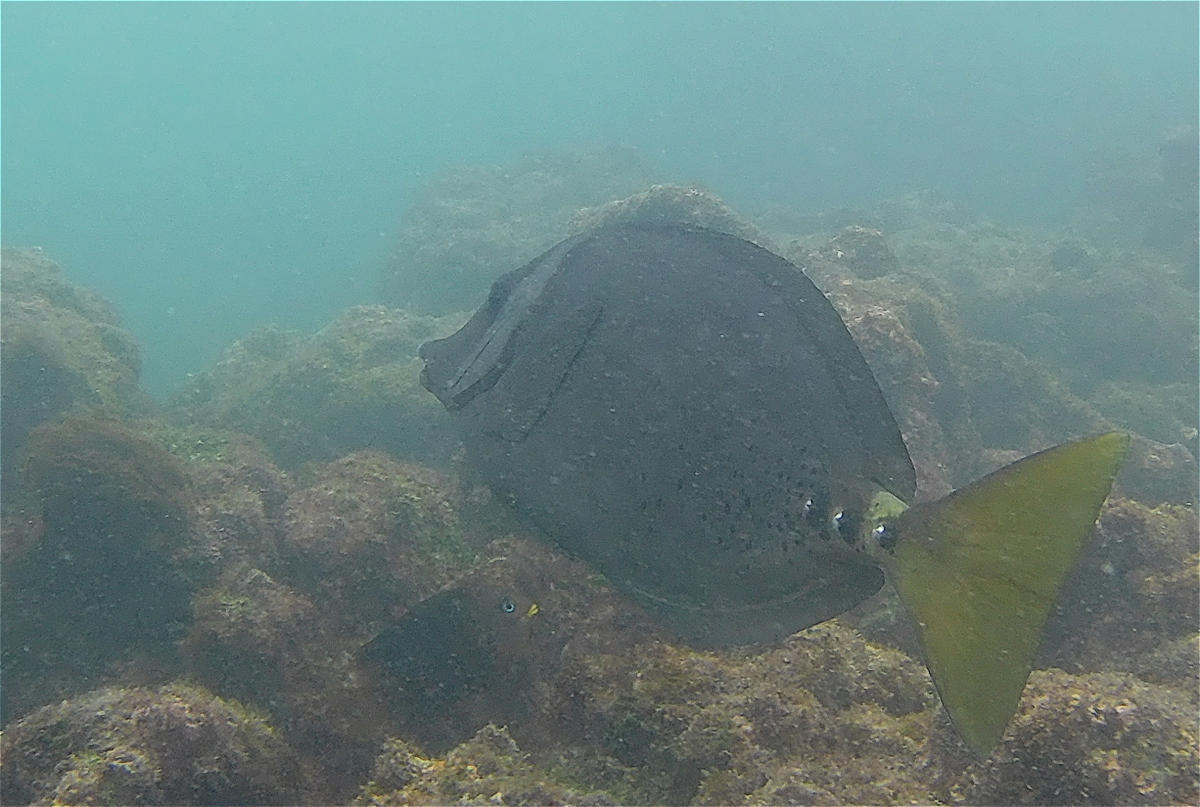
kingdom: Animalia
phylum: Chordata
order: Perciformes
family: Acanthuridae
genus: Prionurus
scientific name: Prionurus laticlavius
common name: Razor surgeonfish
